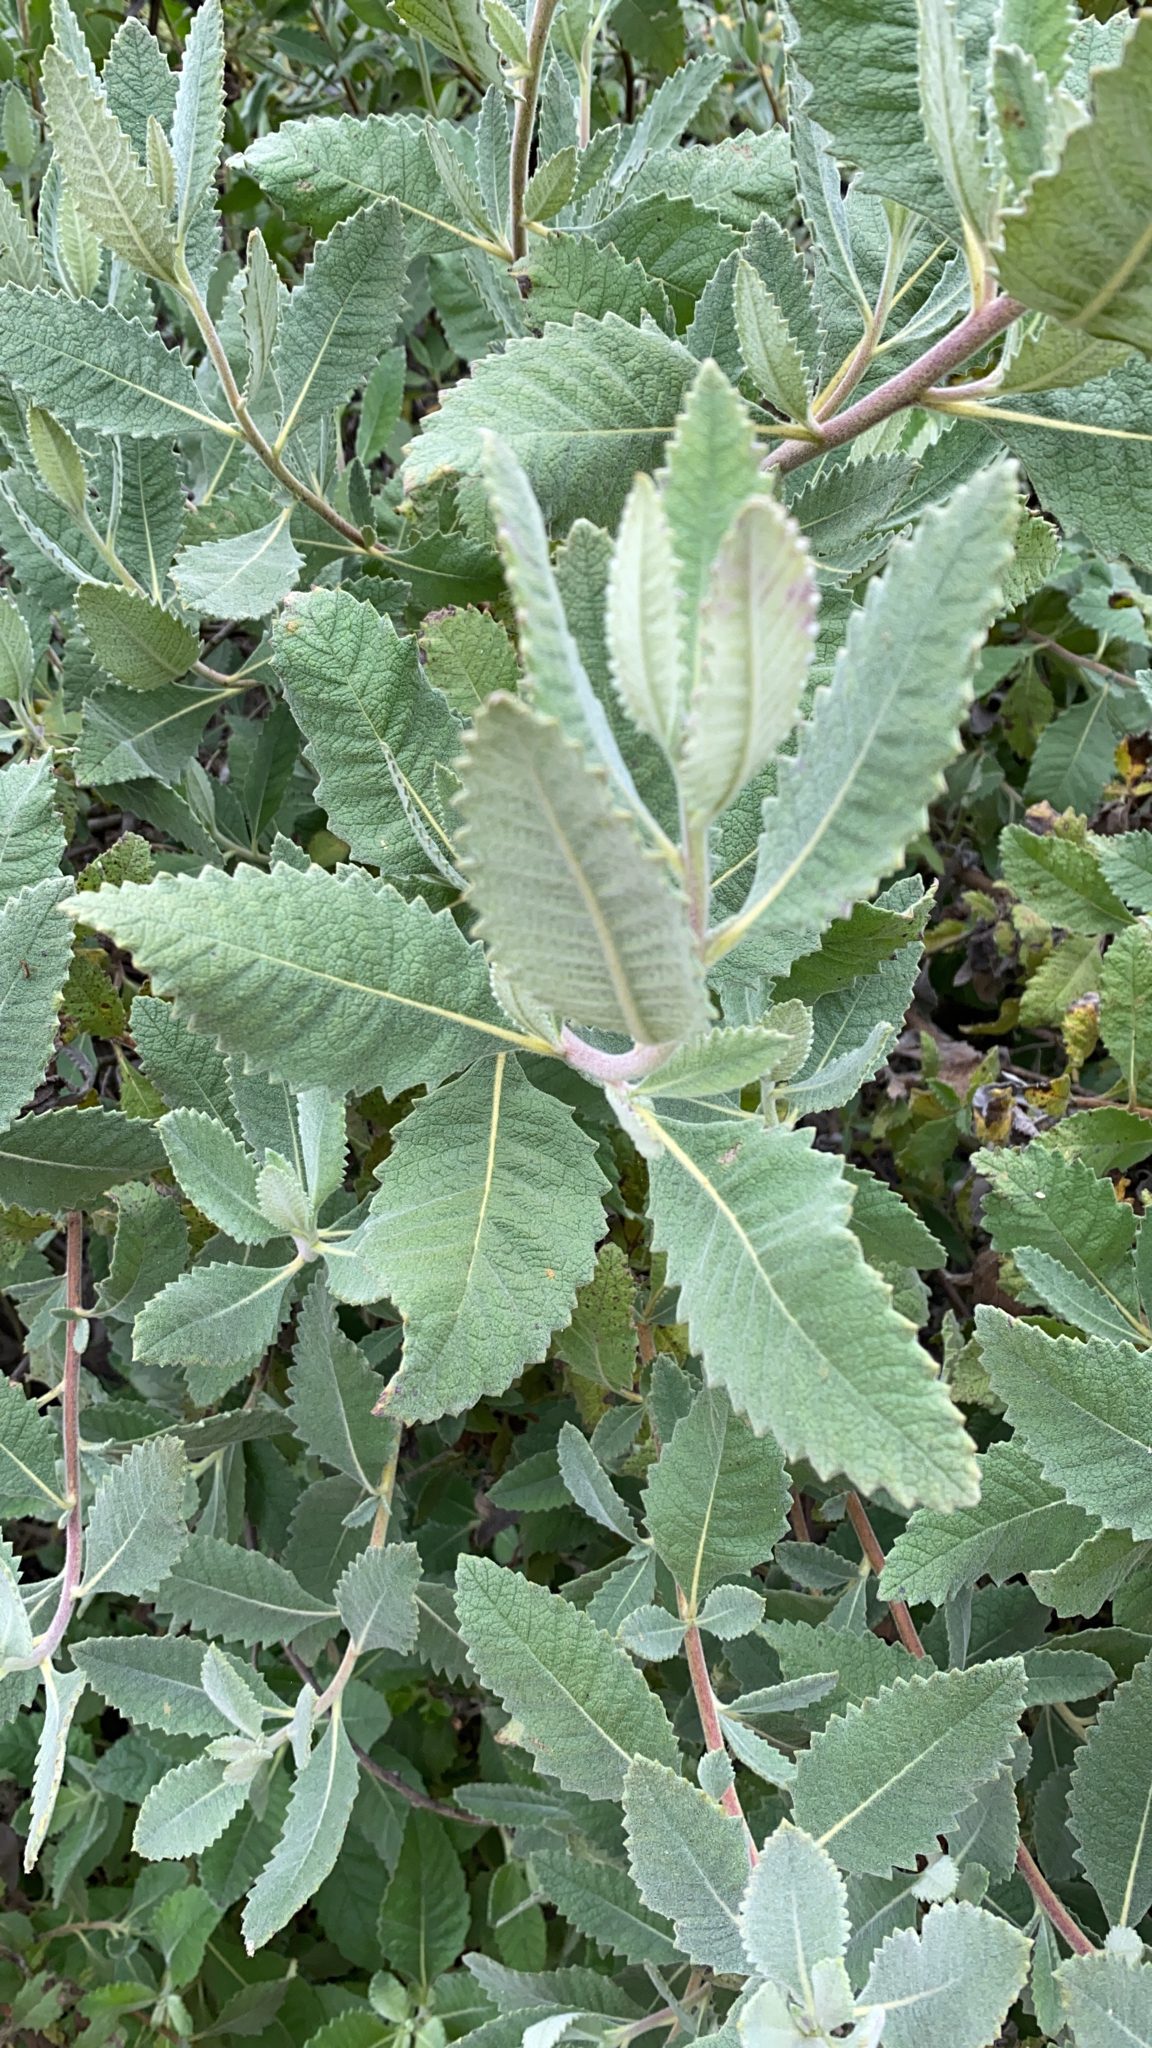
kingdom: Plantae
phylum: Tracheophyta
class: Magnoliopsida
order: Boraginales
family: Namaceae
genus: Eriodictyon
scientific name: Eriodictyon crassifolium
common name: Thick-leaf yerba-santa
